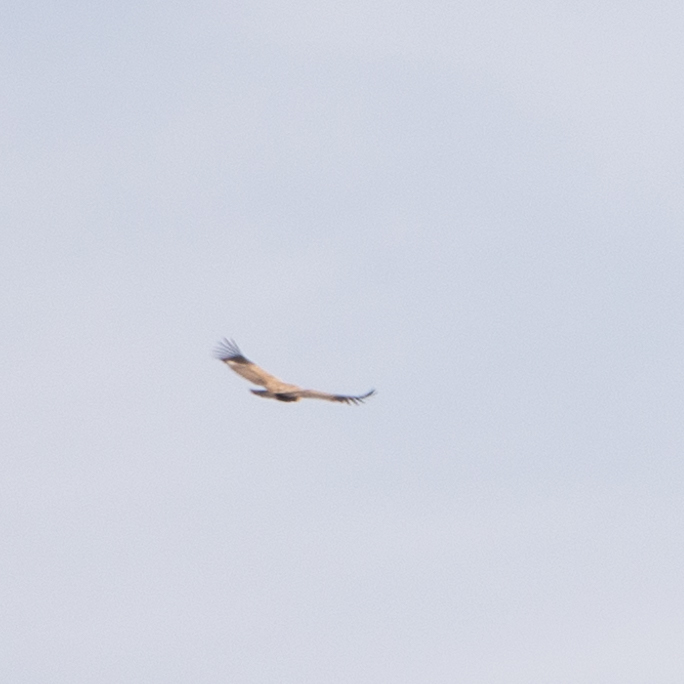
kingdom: Animalia
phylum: Chordata
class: Aves
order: Accipitriformes
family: Accipitridae
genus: Gyps
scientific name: Gyps fulvus
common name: Griffon vulture
